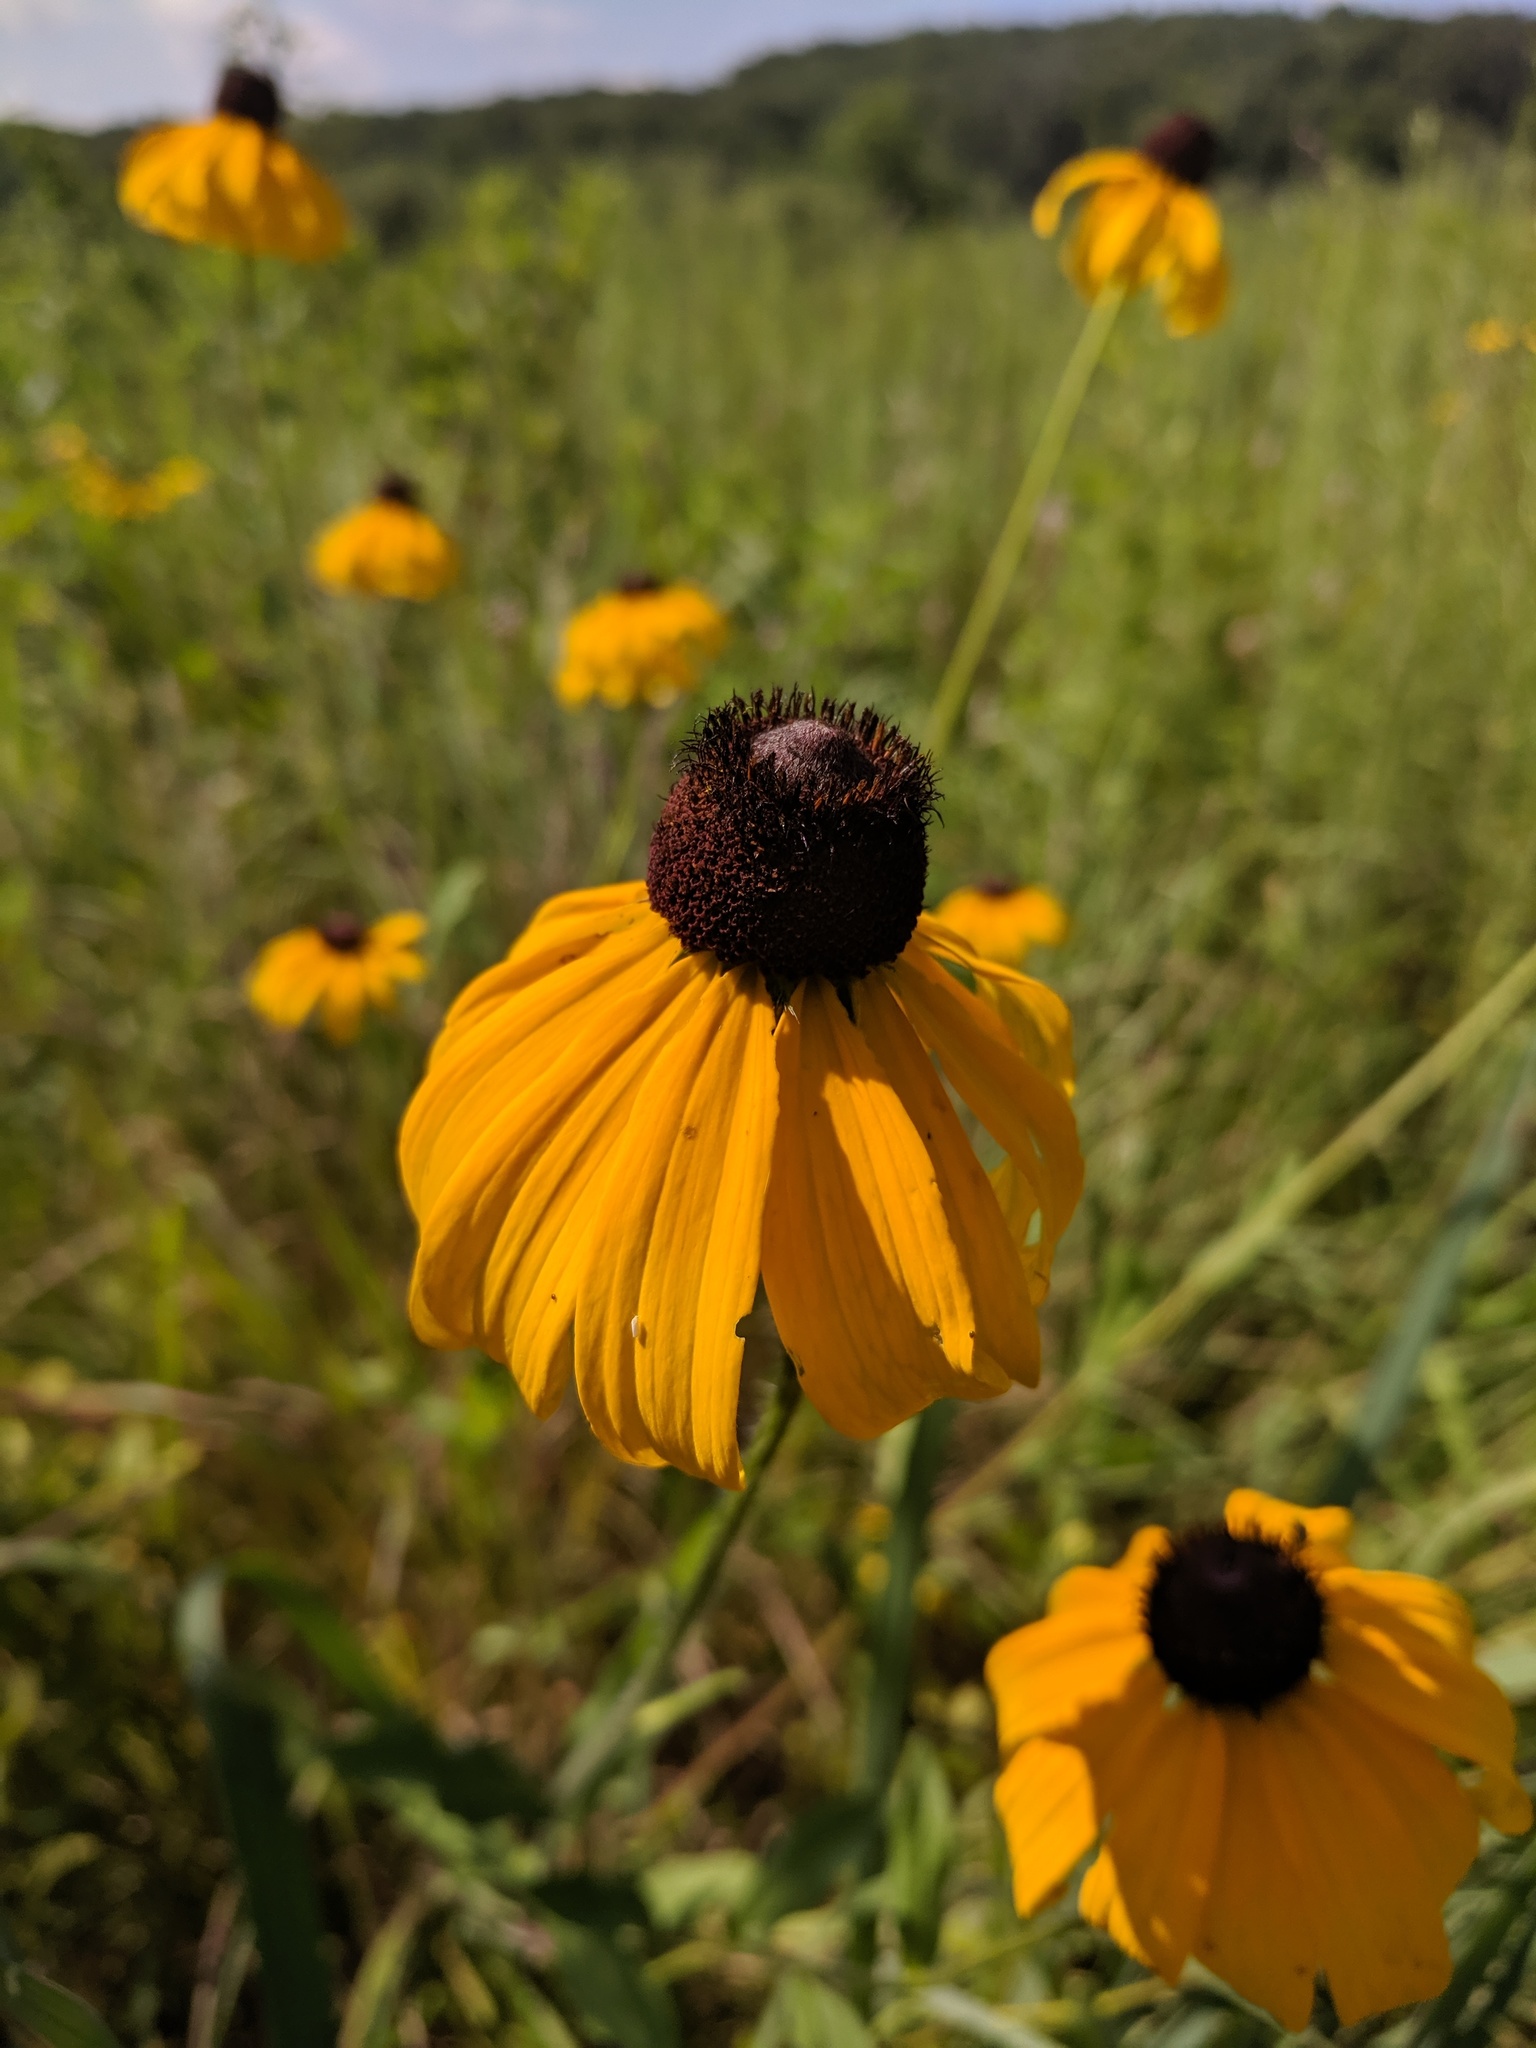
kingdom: Plantae
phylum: Tracheophyta
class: Magnoliopsida
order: Asterales
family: Asteraceae
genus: Ratibida
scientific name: Ratibida pinnata
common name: Drooping prairie-coneflower
